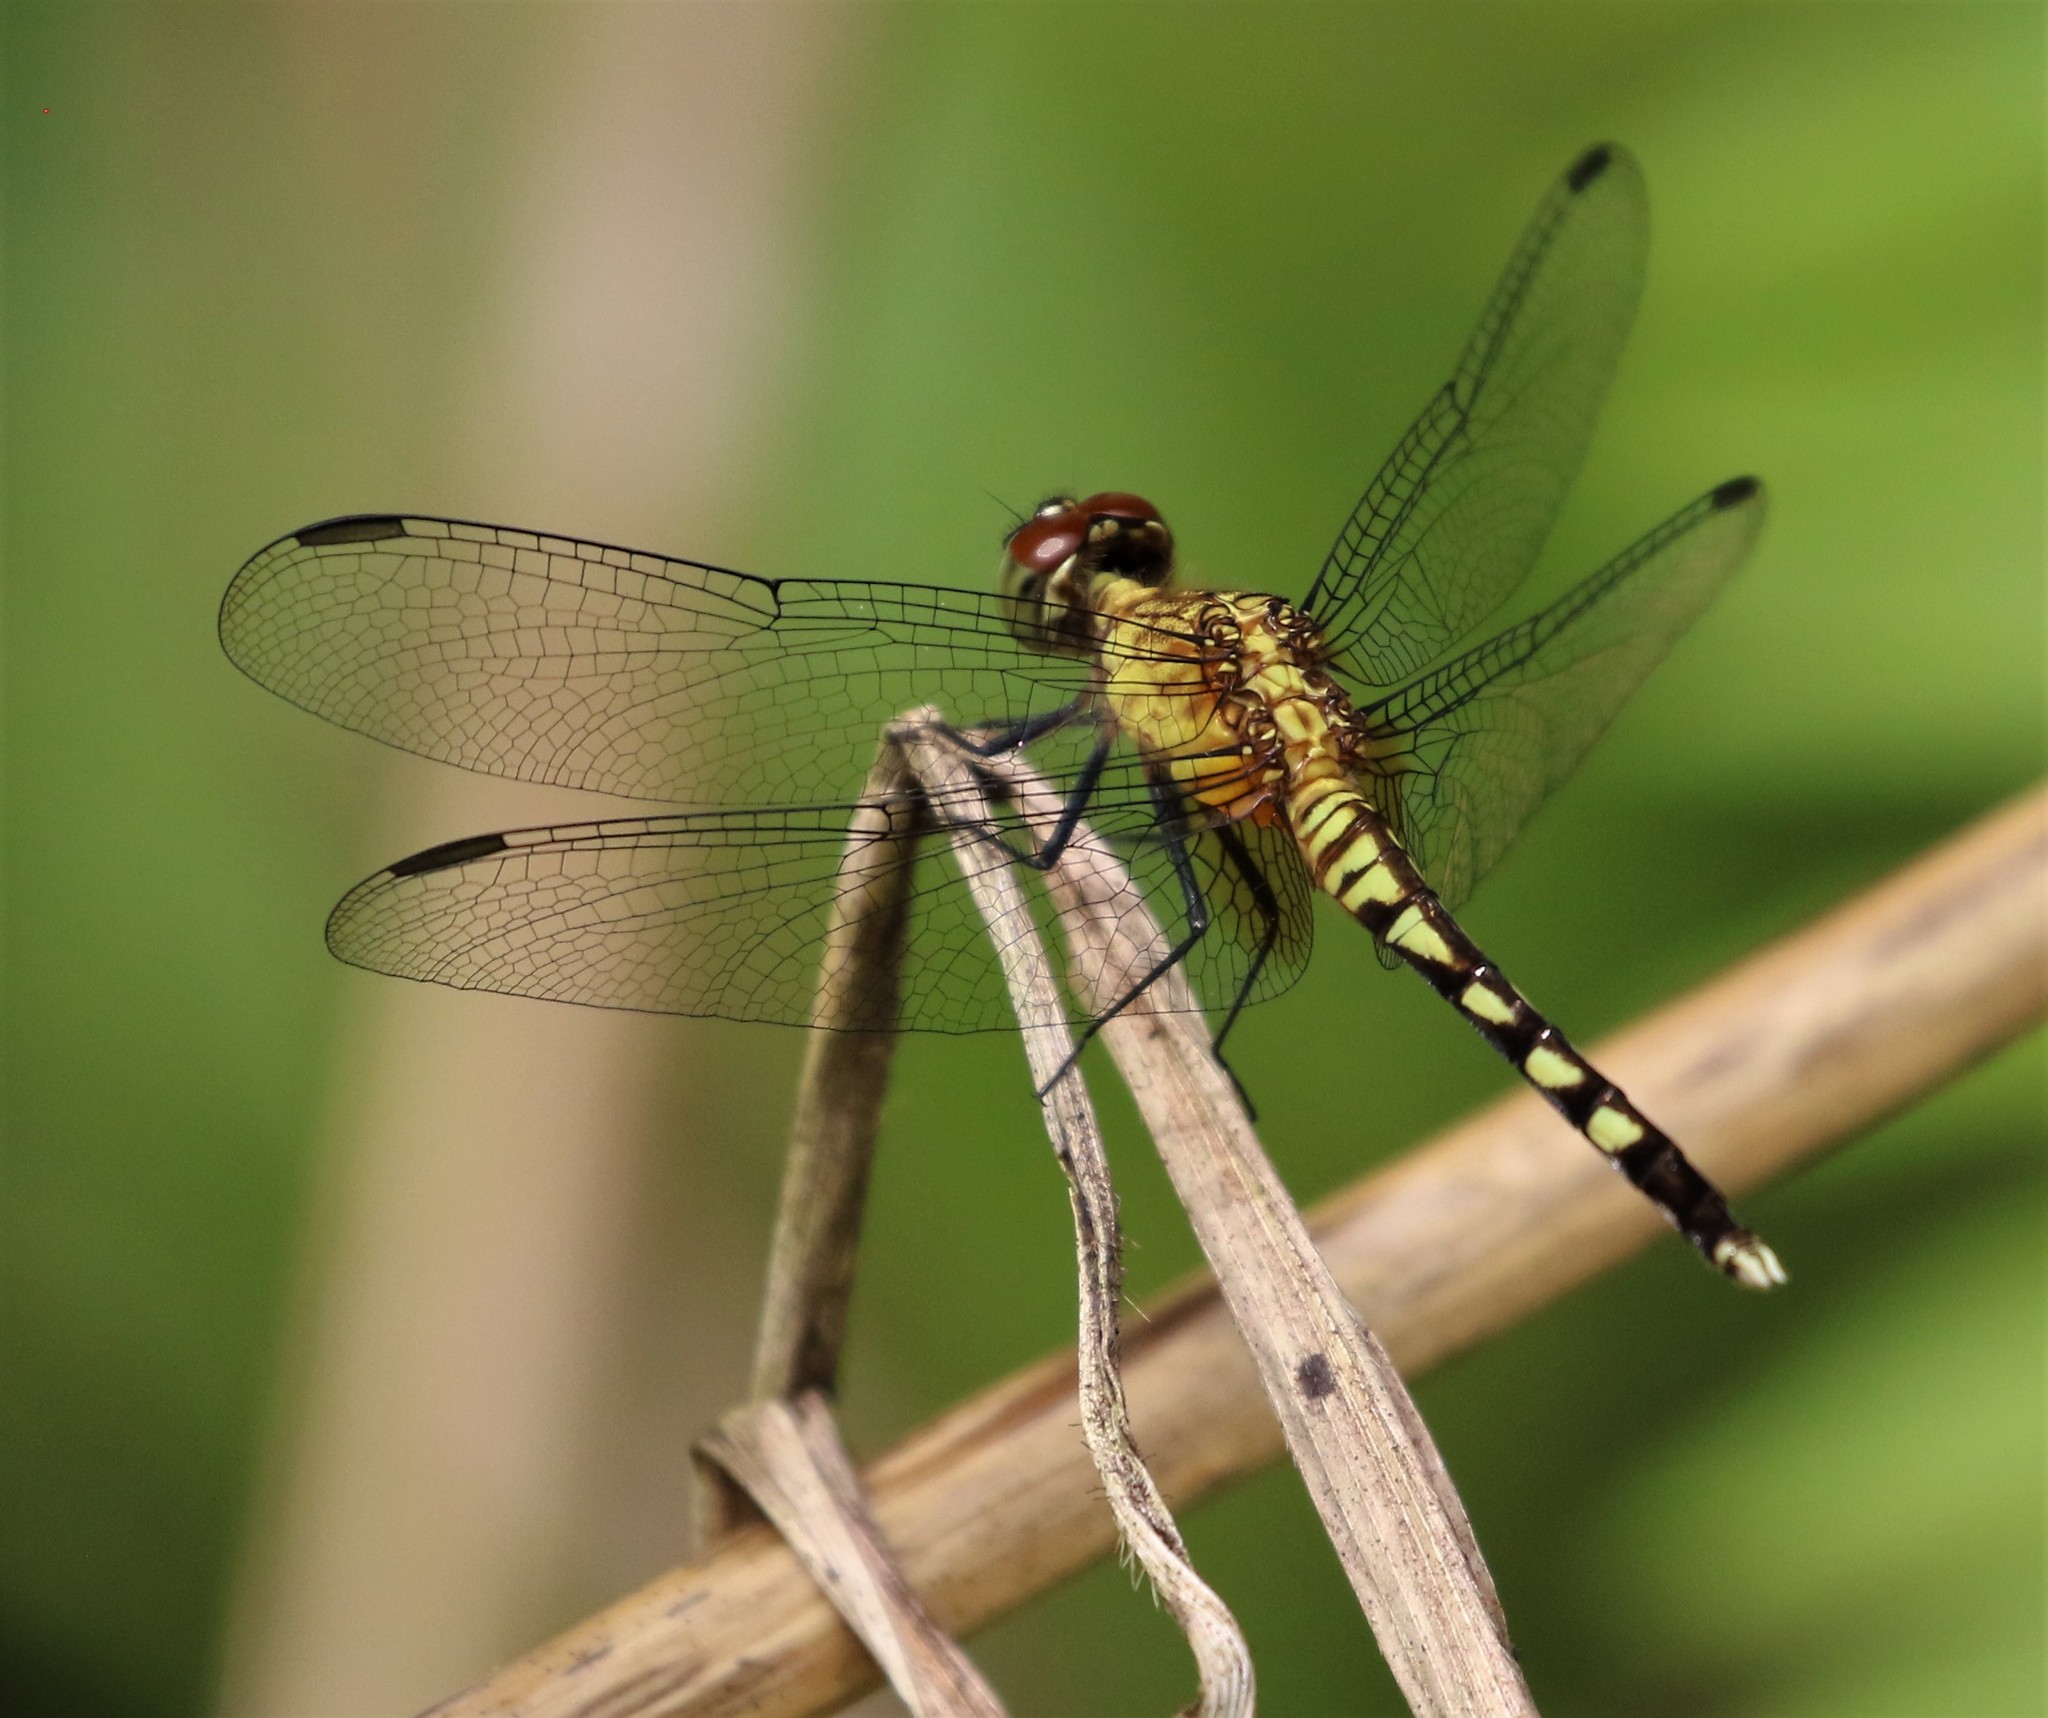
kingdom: Animalia
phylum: Arthropoda
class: Insecta
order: Odonata
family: Libellulidae
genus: Erythrodiplax
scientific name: Erythrodiplax fervida
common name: Red-mantled dragonlet
